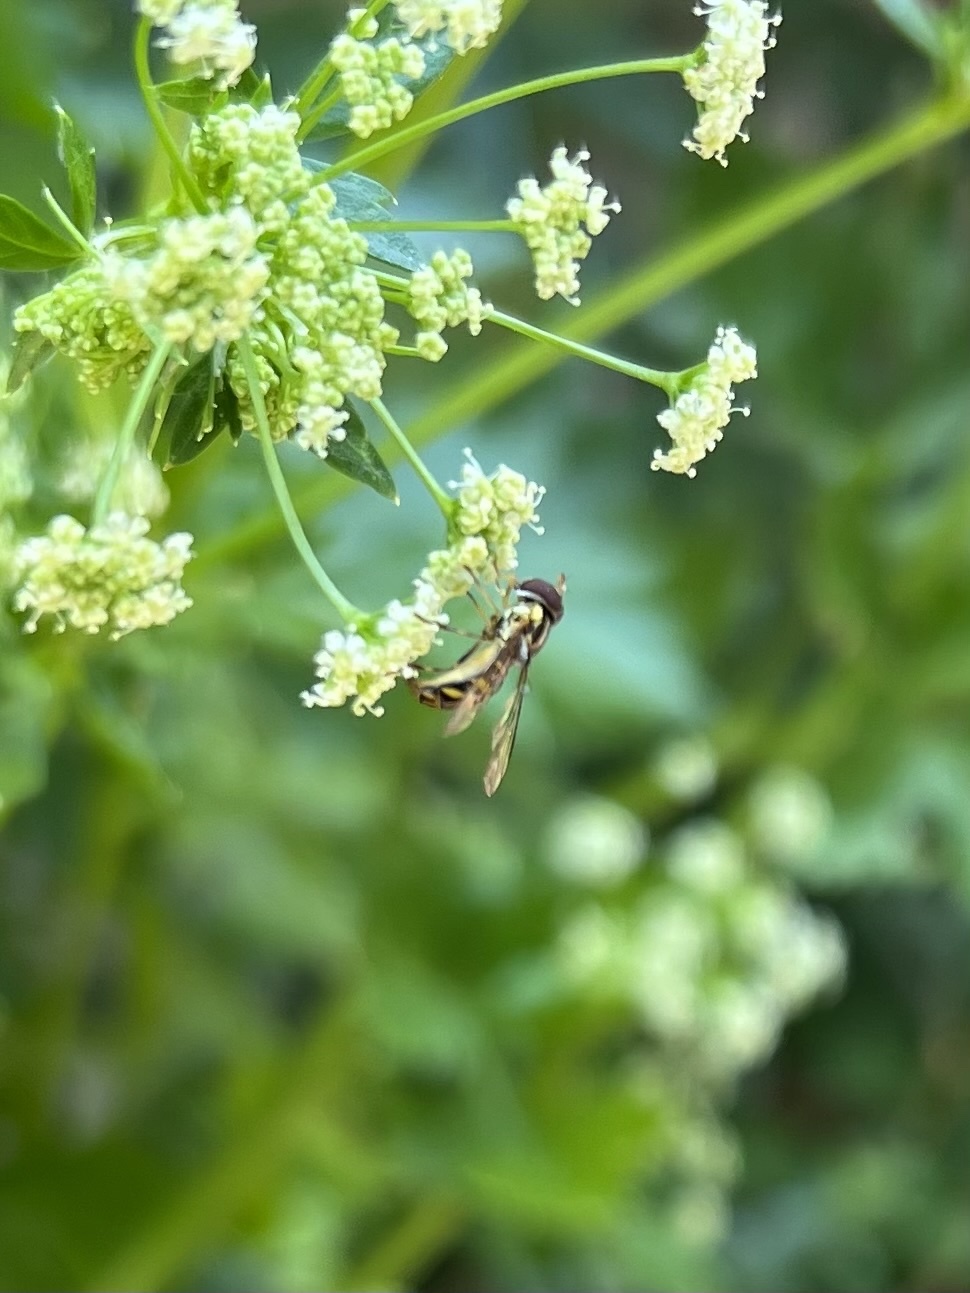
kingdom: Animalia
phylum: Arthropoda
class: Insecta
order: Diptera
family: Syrphidae
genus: Allograpta
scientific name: Allograpta obliqua
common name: Common oblique syrphid
